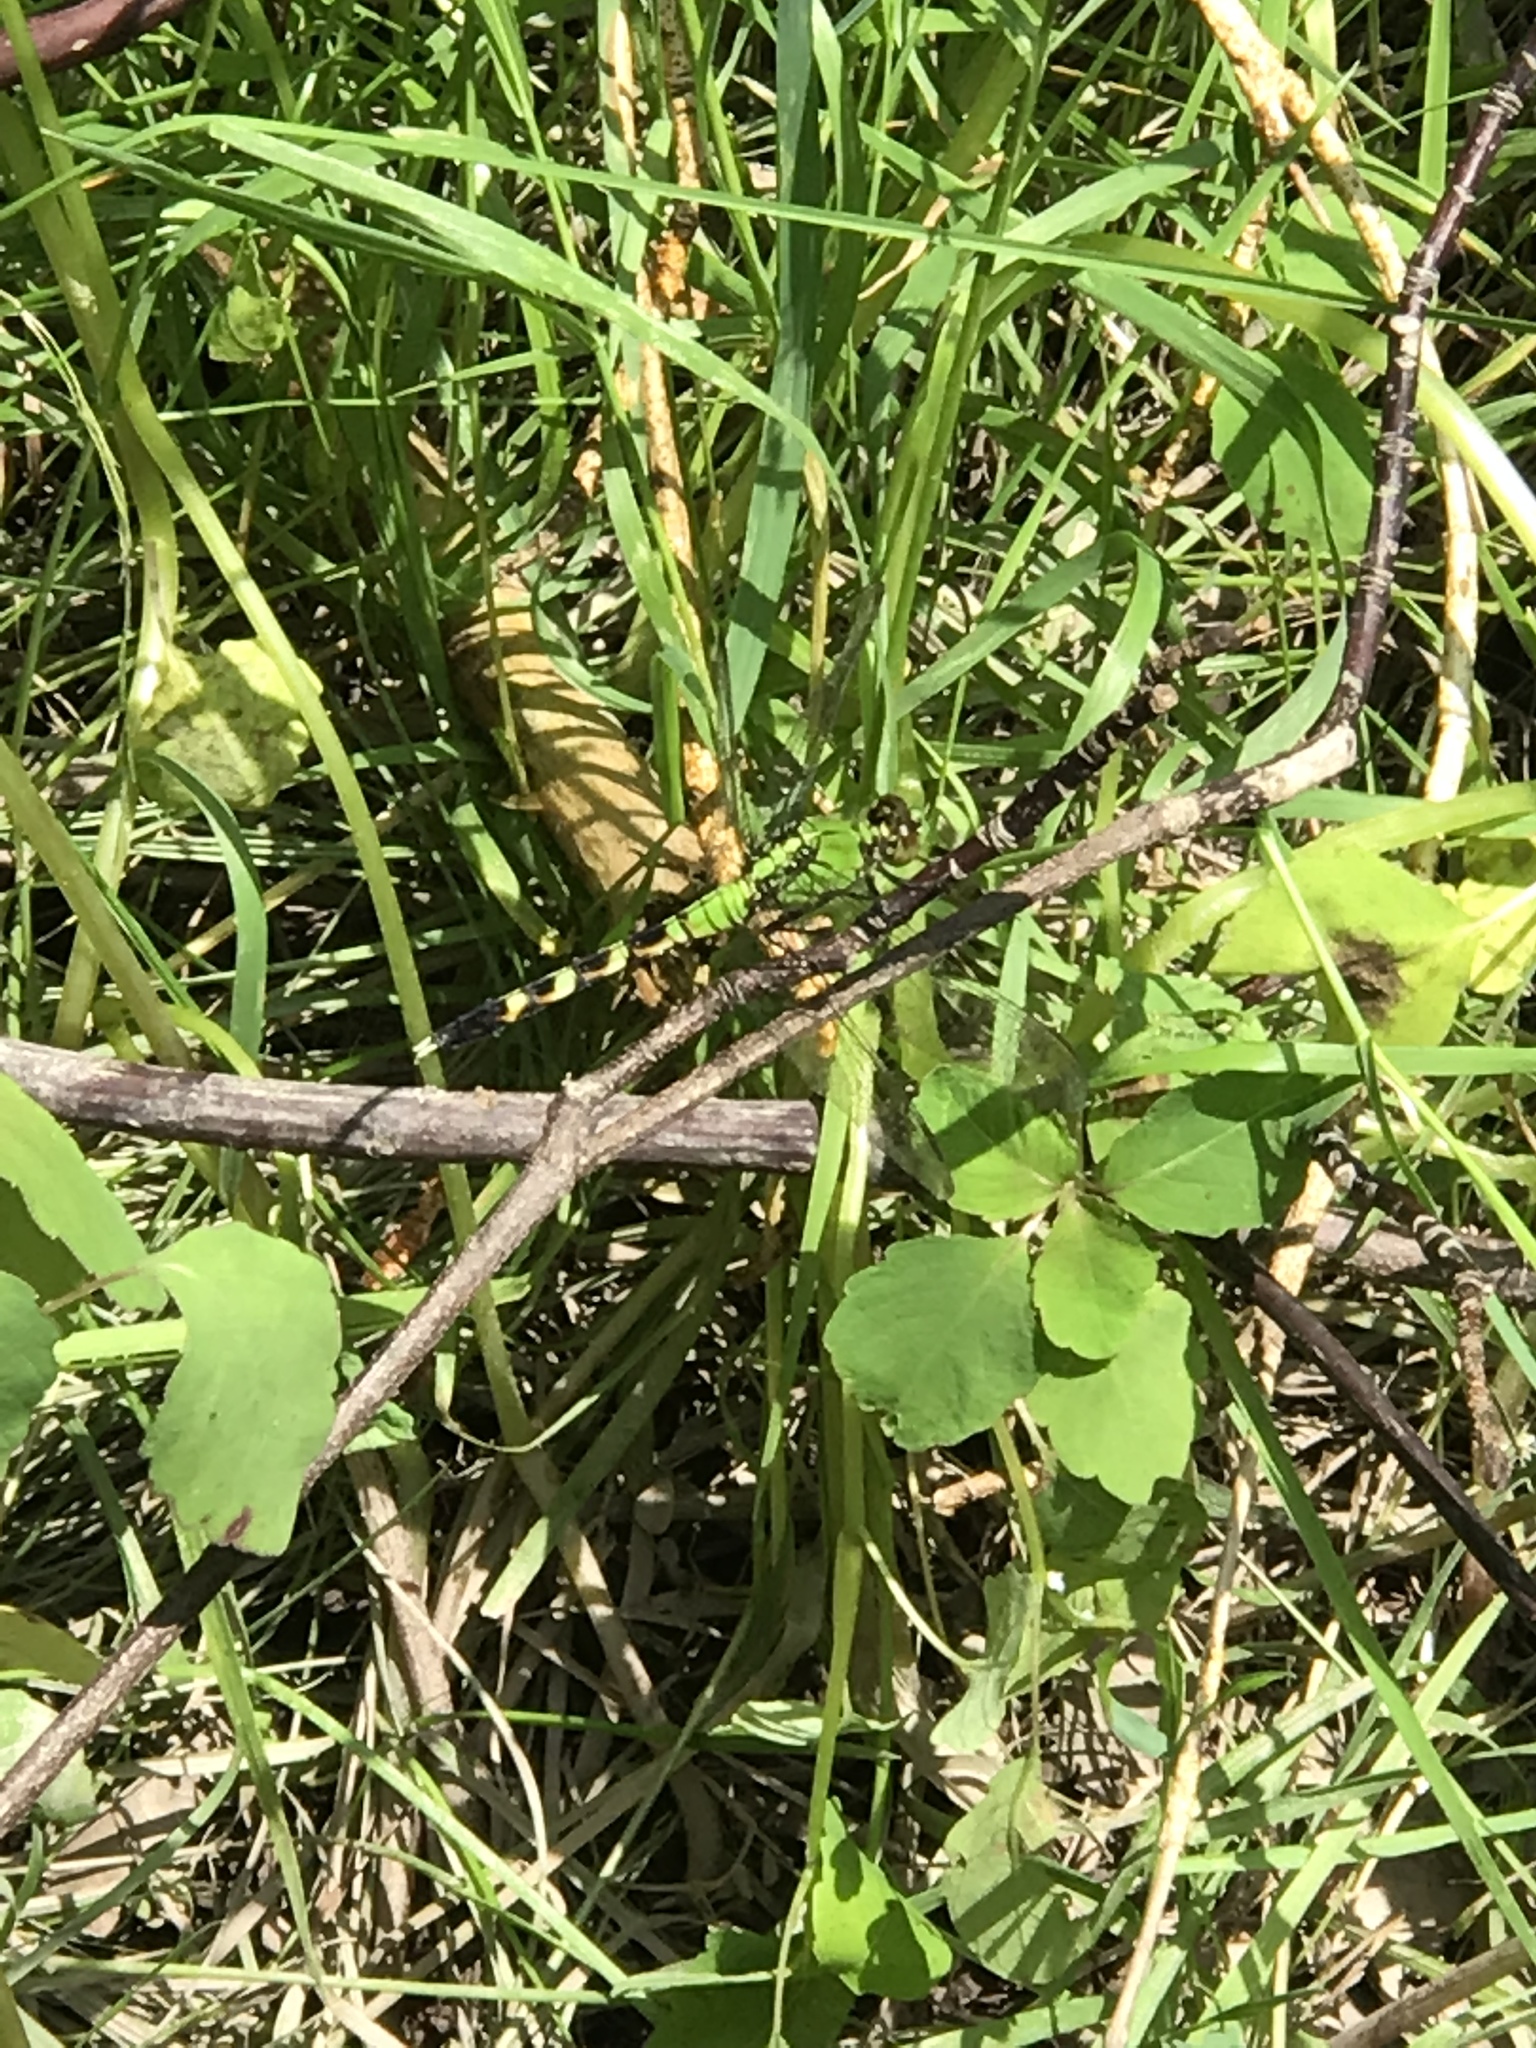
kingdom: Animalia
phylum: Arthropoda
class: Insecta
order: Odonata
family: Libellulidae
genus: Erythemis
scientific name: Erythemis simplicicollis
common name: Eastern pondhawk
